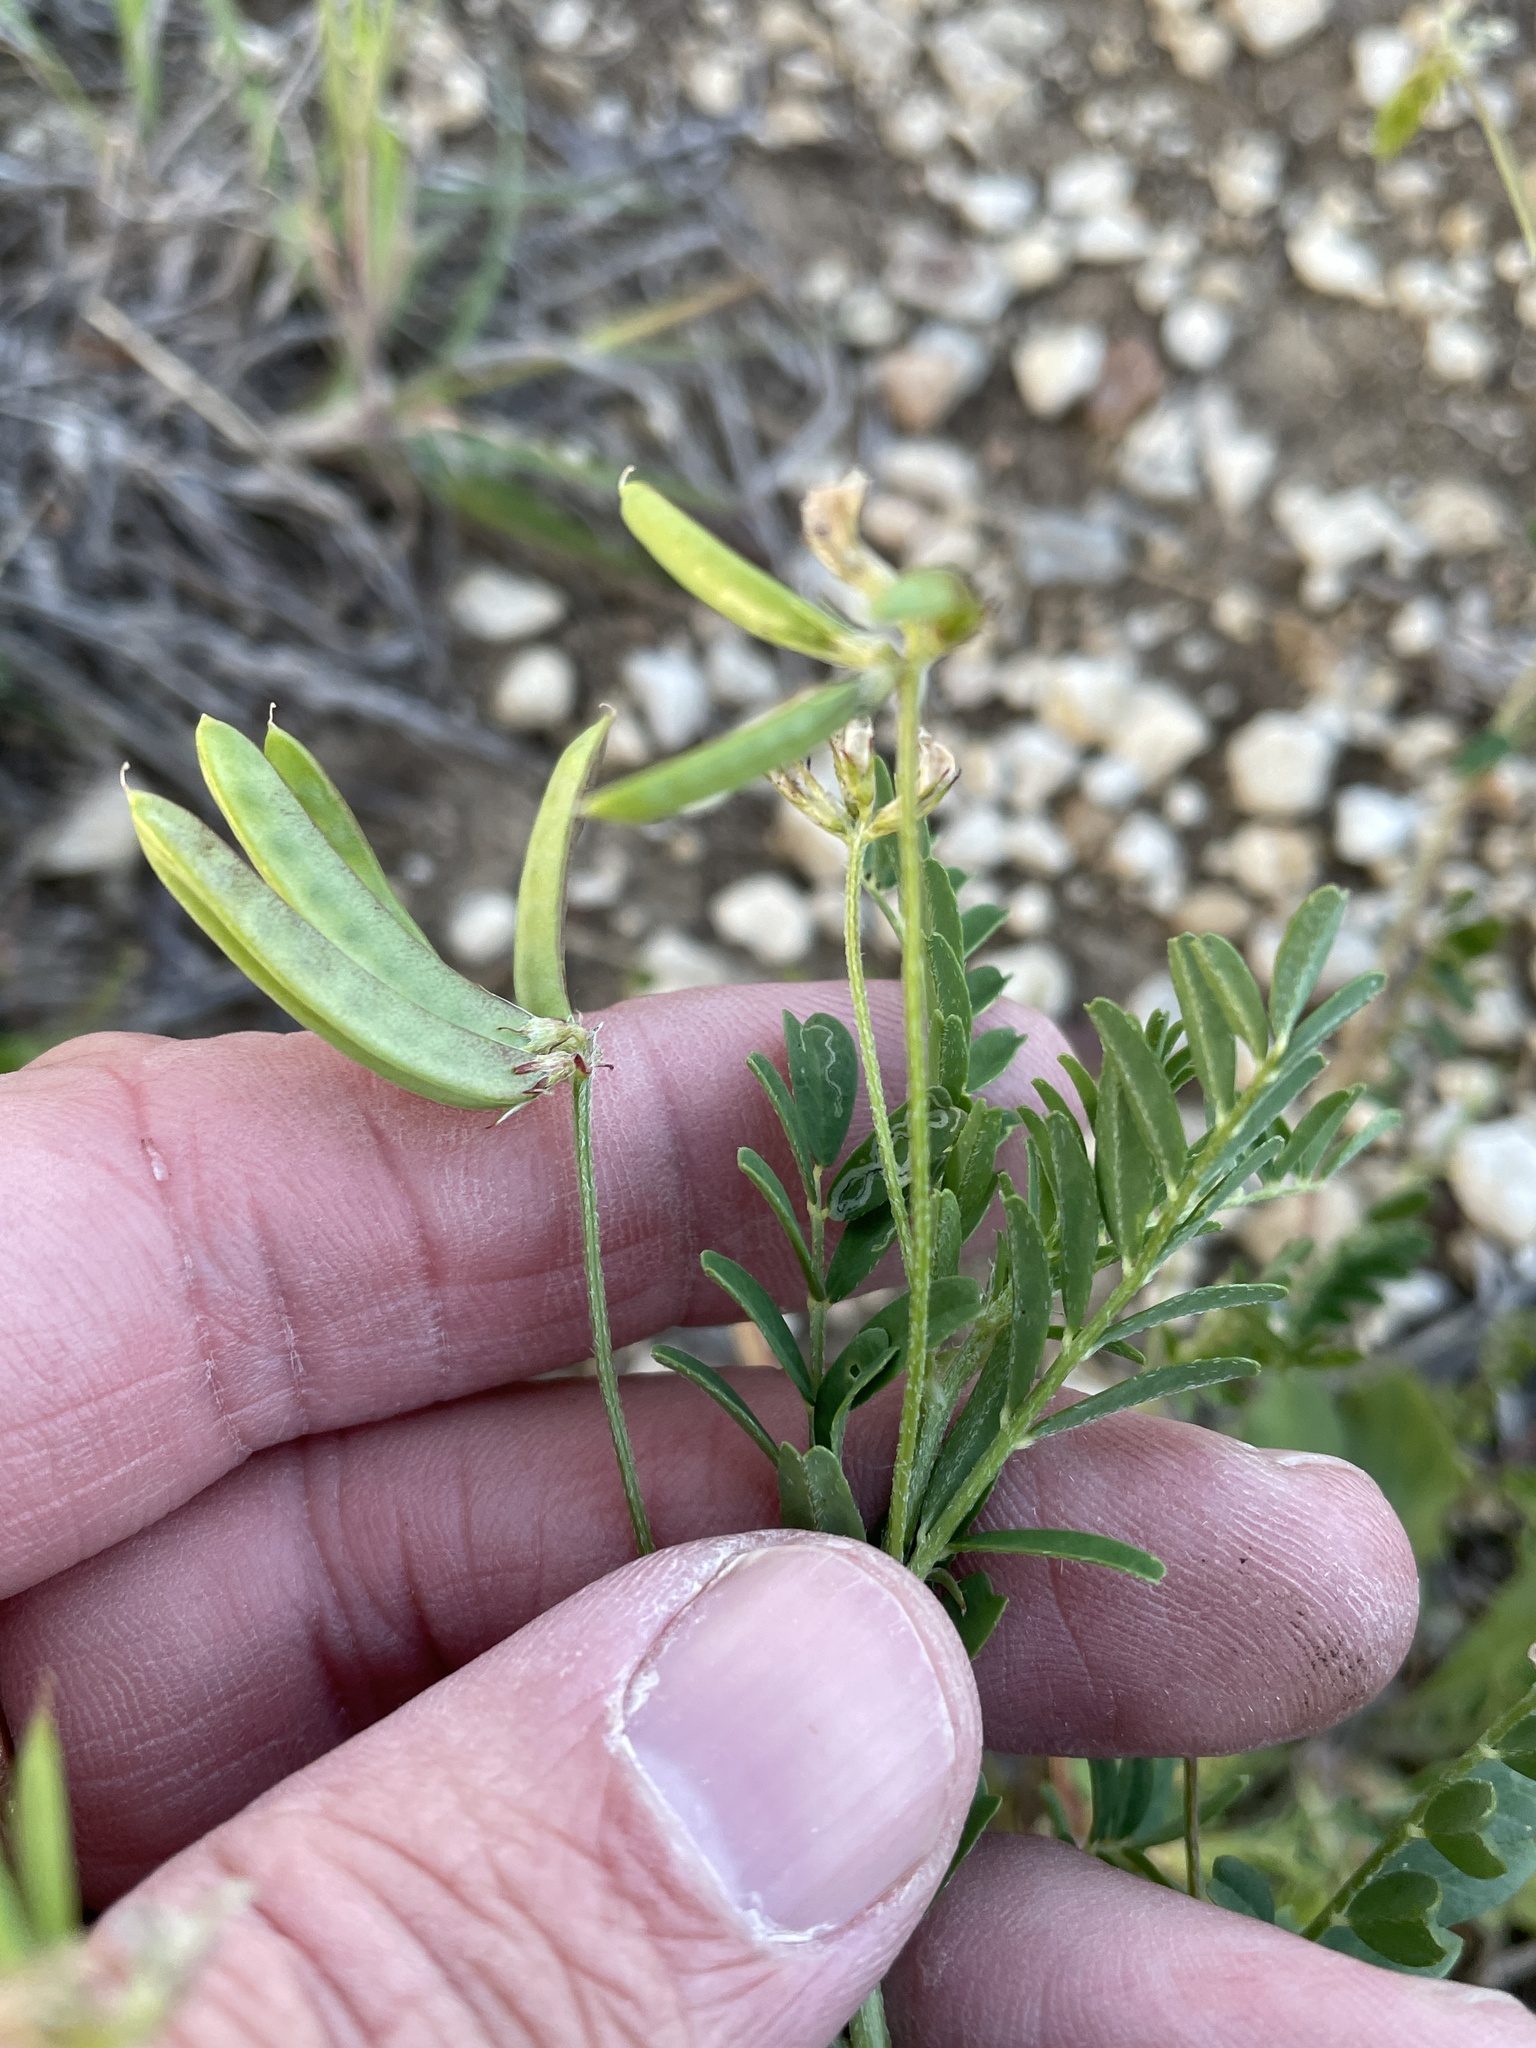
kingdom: Plantae
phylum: Tracheophyta
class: Magnoliopsida
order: Fabales
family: Fabaceae
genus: Astragalus
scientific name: Astragalus nuttallianus
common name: Smallflowered milkvetch
